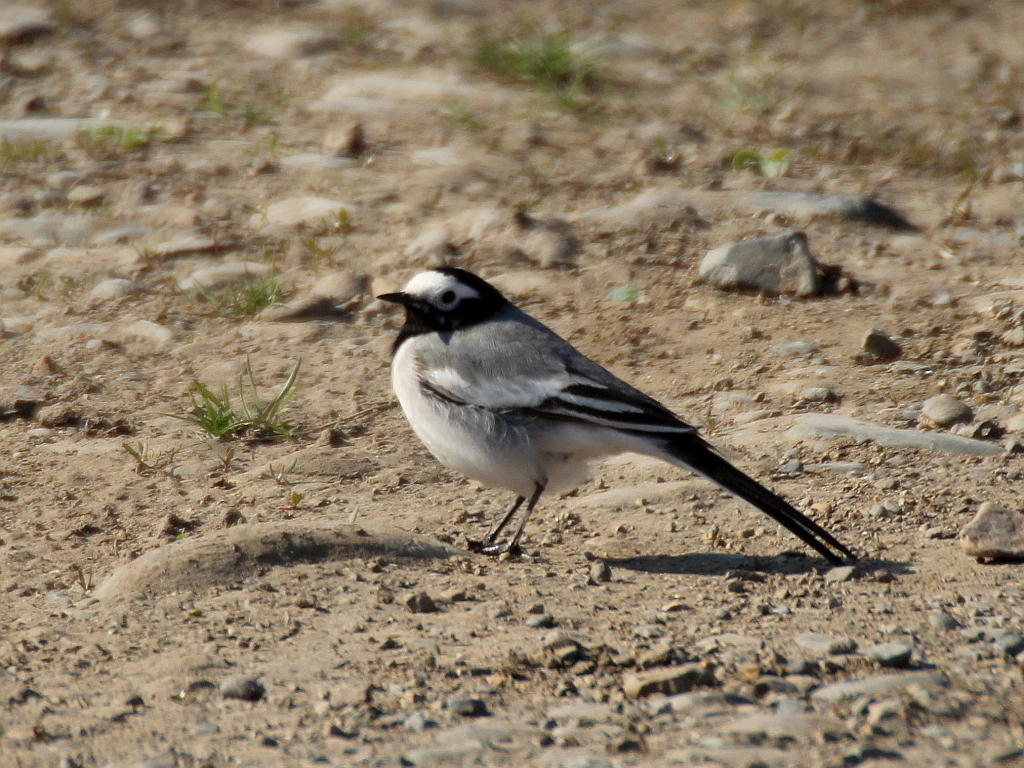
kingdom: Animalia
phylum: Chordata
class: Aves
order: Passeriformes
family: Motacillidae
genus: Motacilla
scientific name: Motacilla alba
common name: White wagtail
